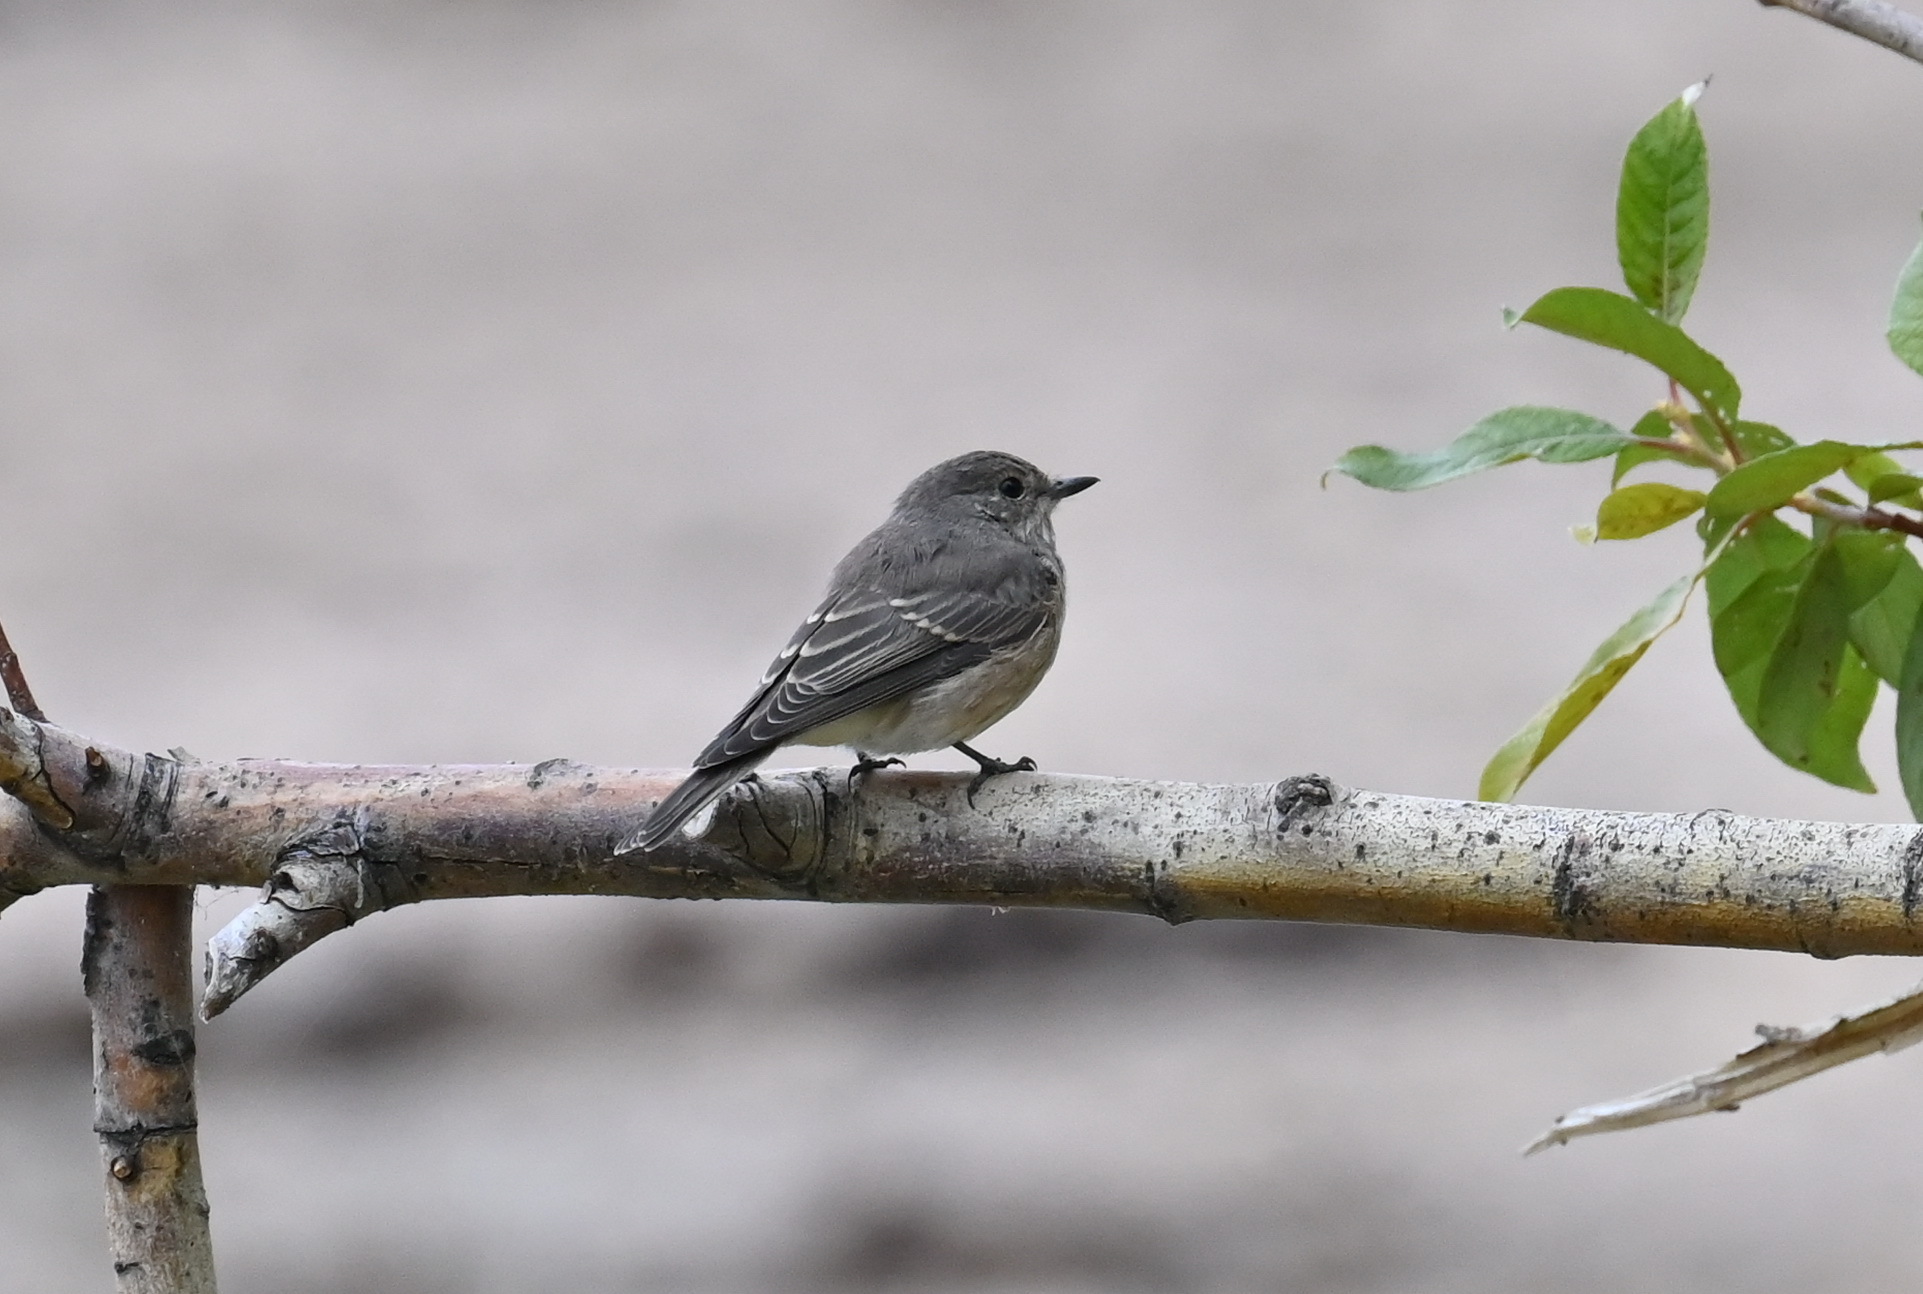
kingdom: Animalia
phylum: Chordata
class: Aves
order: Passeriformes
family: Muscicapidae
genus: Muscicapa
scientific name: Muscicapa striata
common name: Spotted flycatcher
